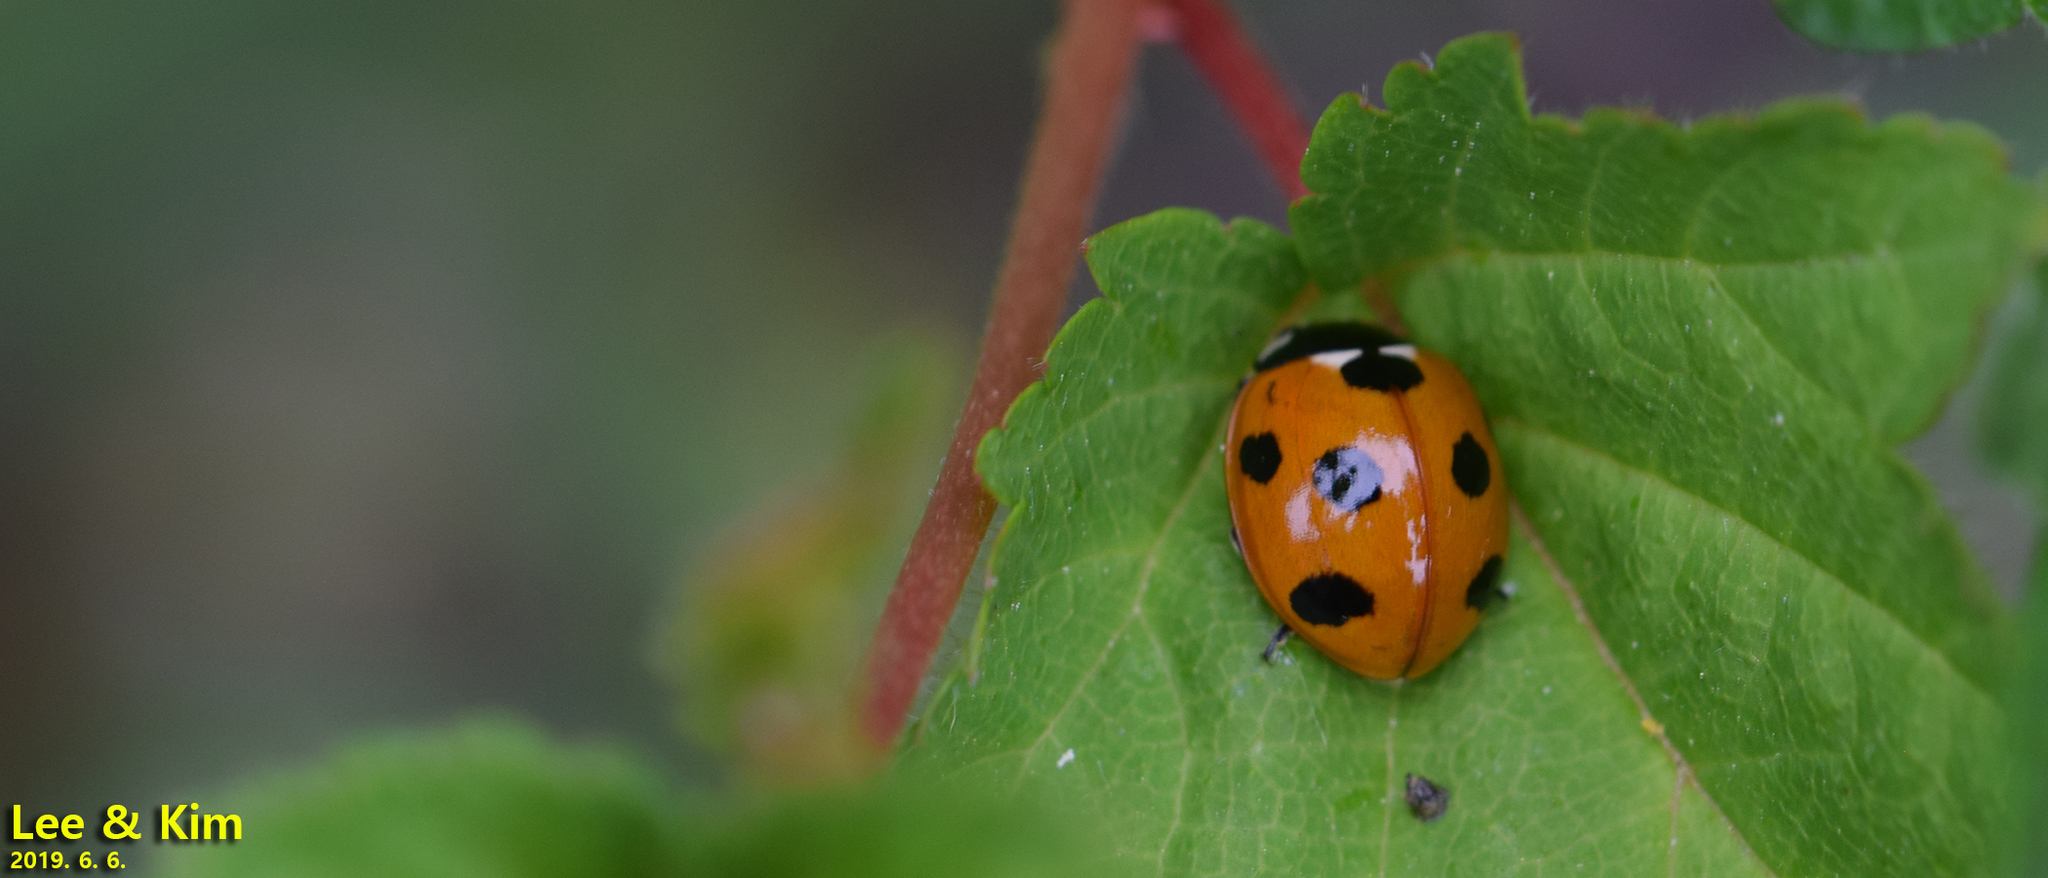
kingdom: Animalia
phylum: Arthropoda
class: Insecta
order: Coleoptera
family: Coccinellidae
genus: Coccinella
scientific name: Coccinella septempunctata
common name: Sevenspotted lady beetle
